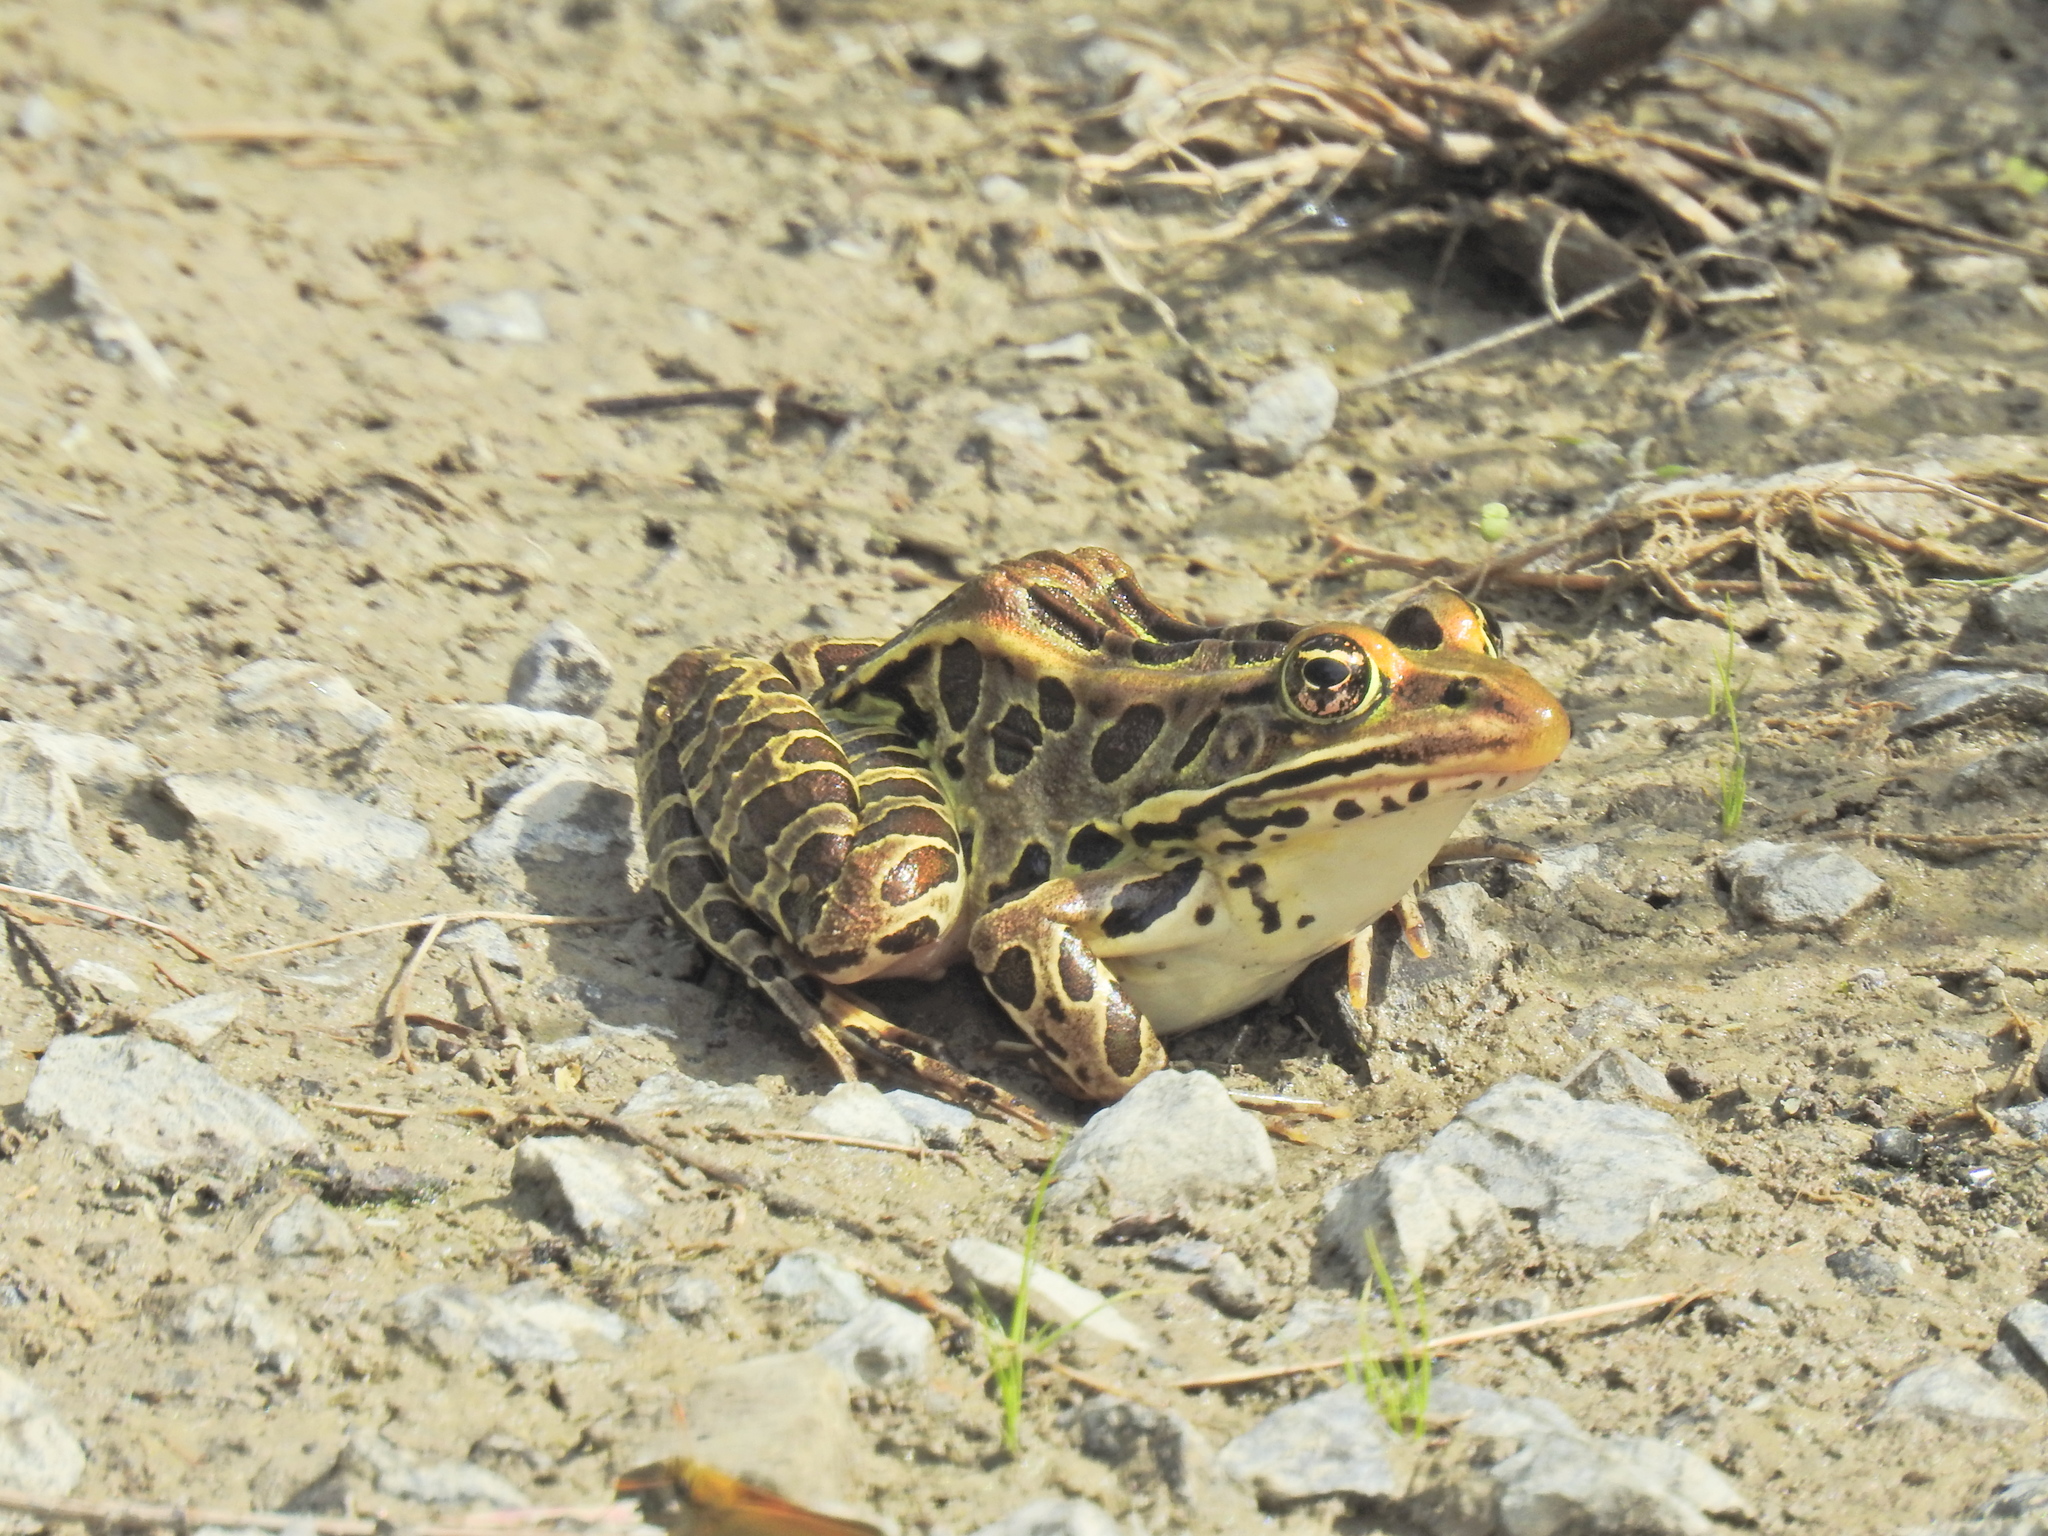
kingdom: Animalia
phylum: Chordata
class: Amphibia
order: Anura
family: Ranidae
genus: Lithobates
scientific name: Lithobates pipiens
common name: Northern leopard frog
